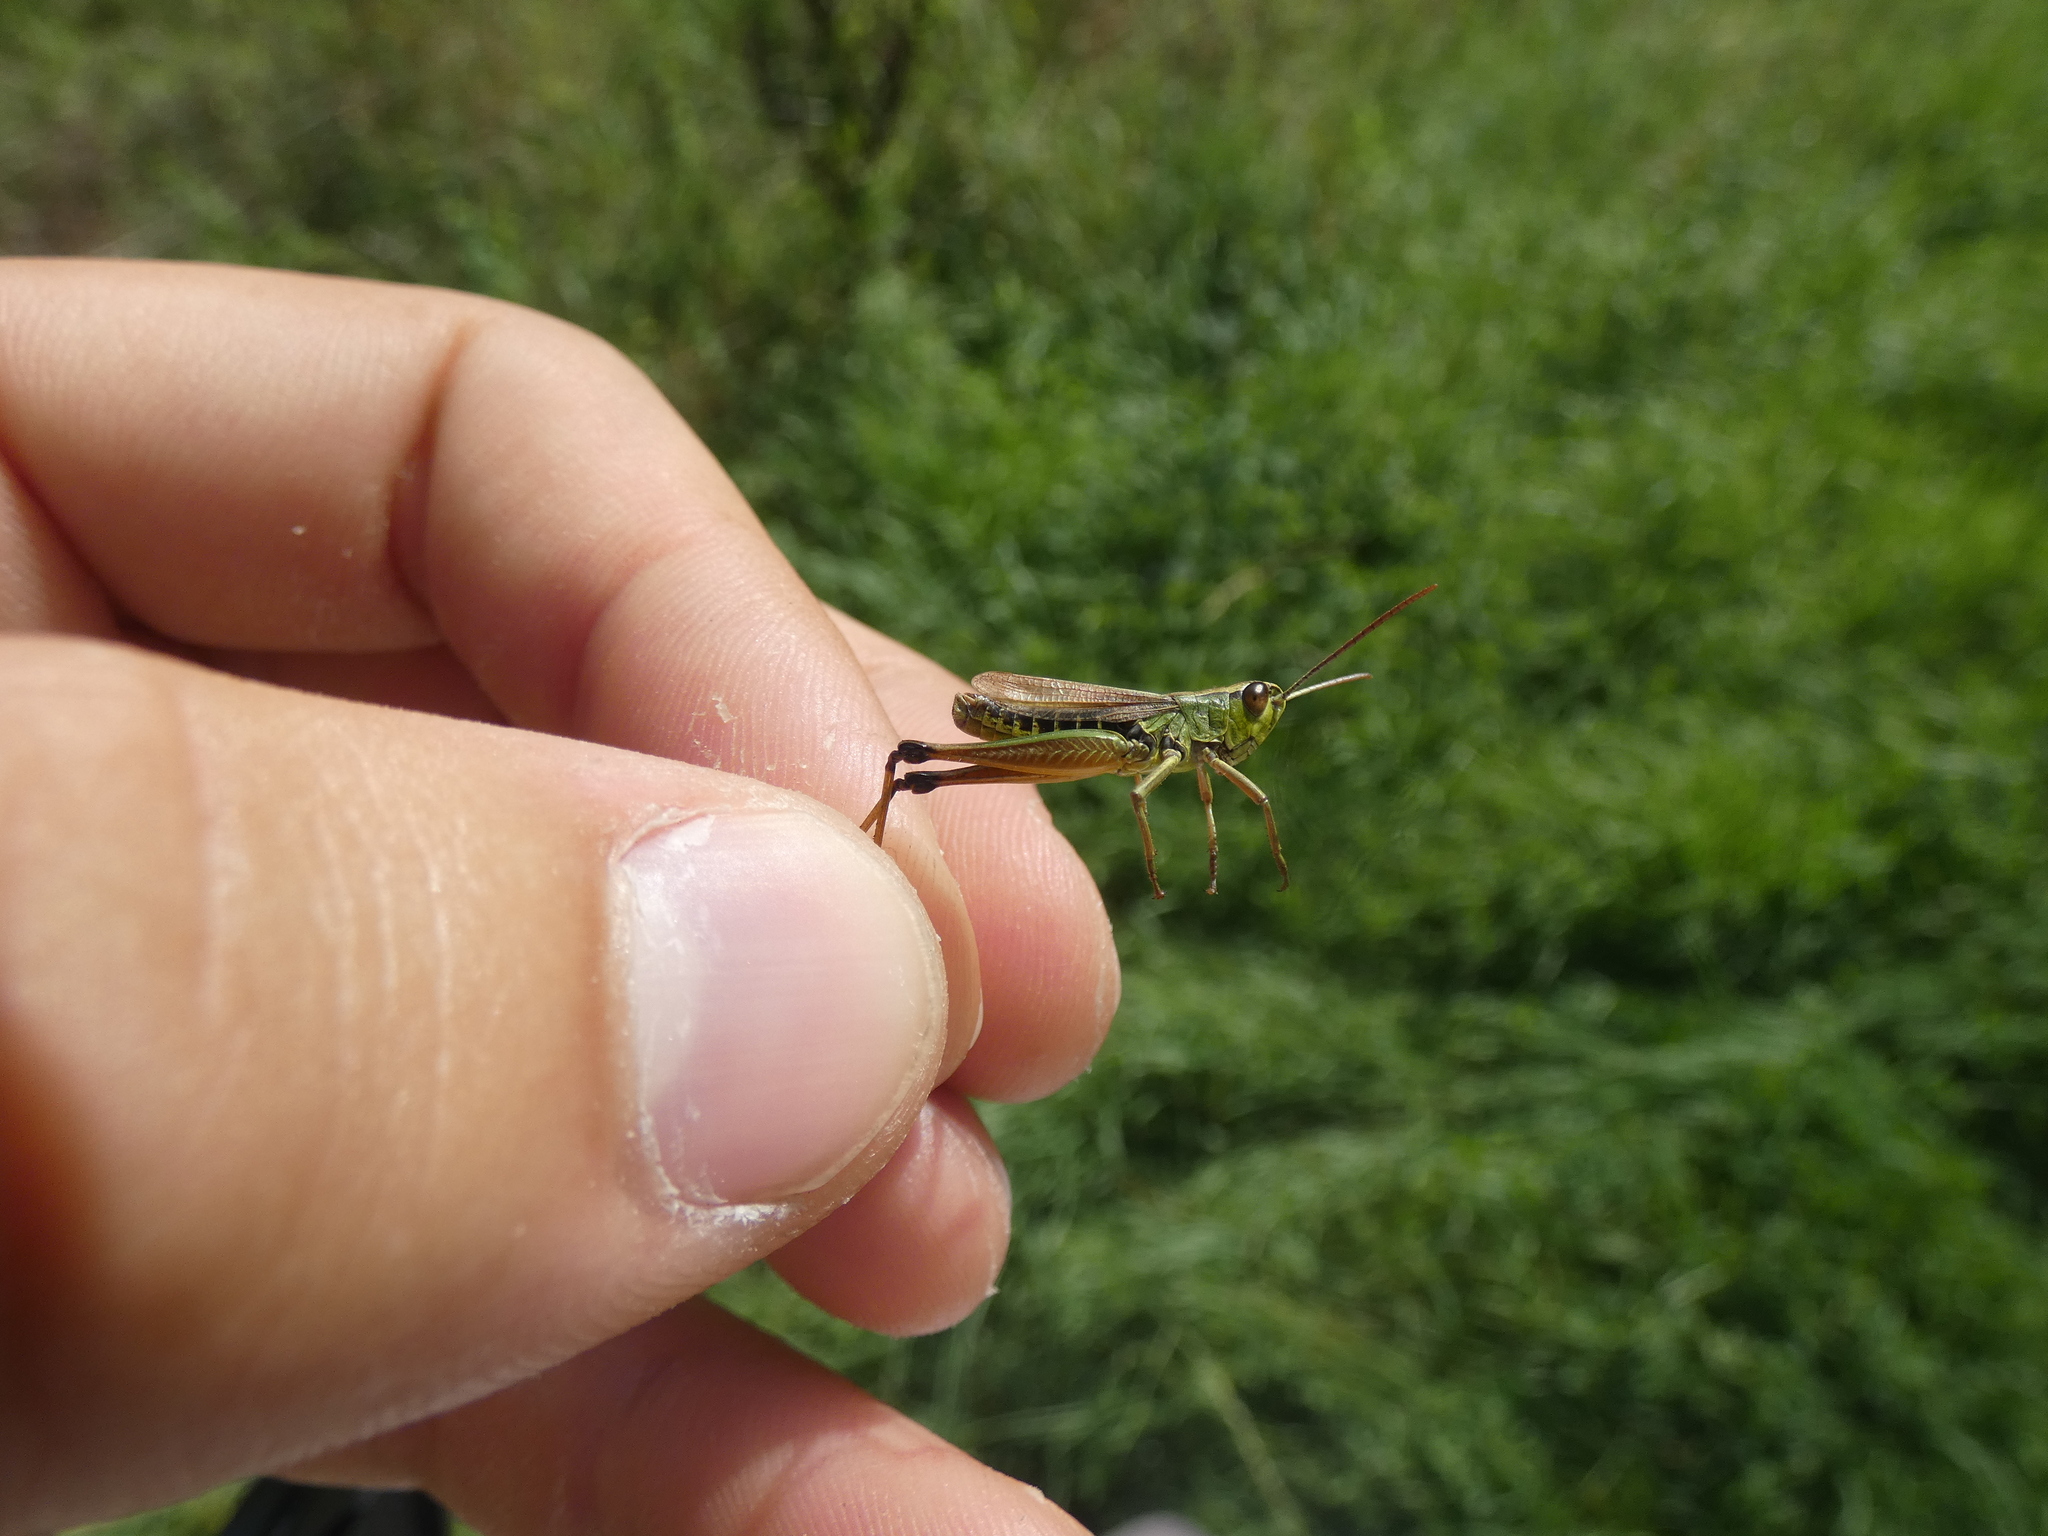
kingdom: Animalia
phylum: Arthropoda
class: Insecta
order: Orthoptera
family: Acrididae
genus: Pseudochorthippus
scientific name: Pseudochorthippus parallelus
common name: Meadow grasshopper
